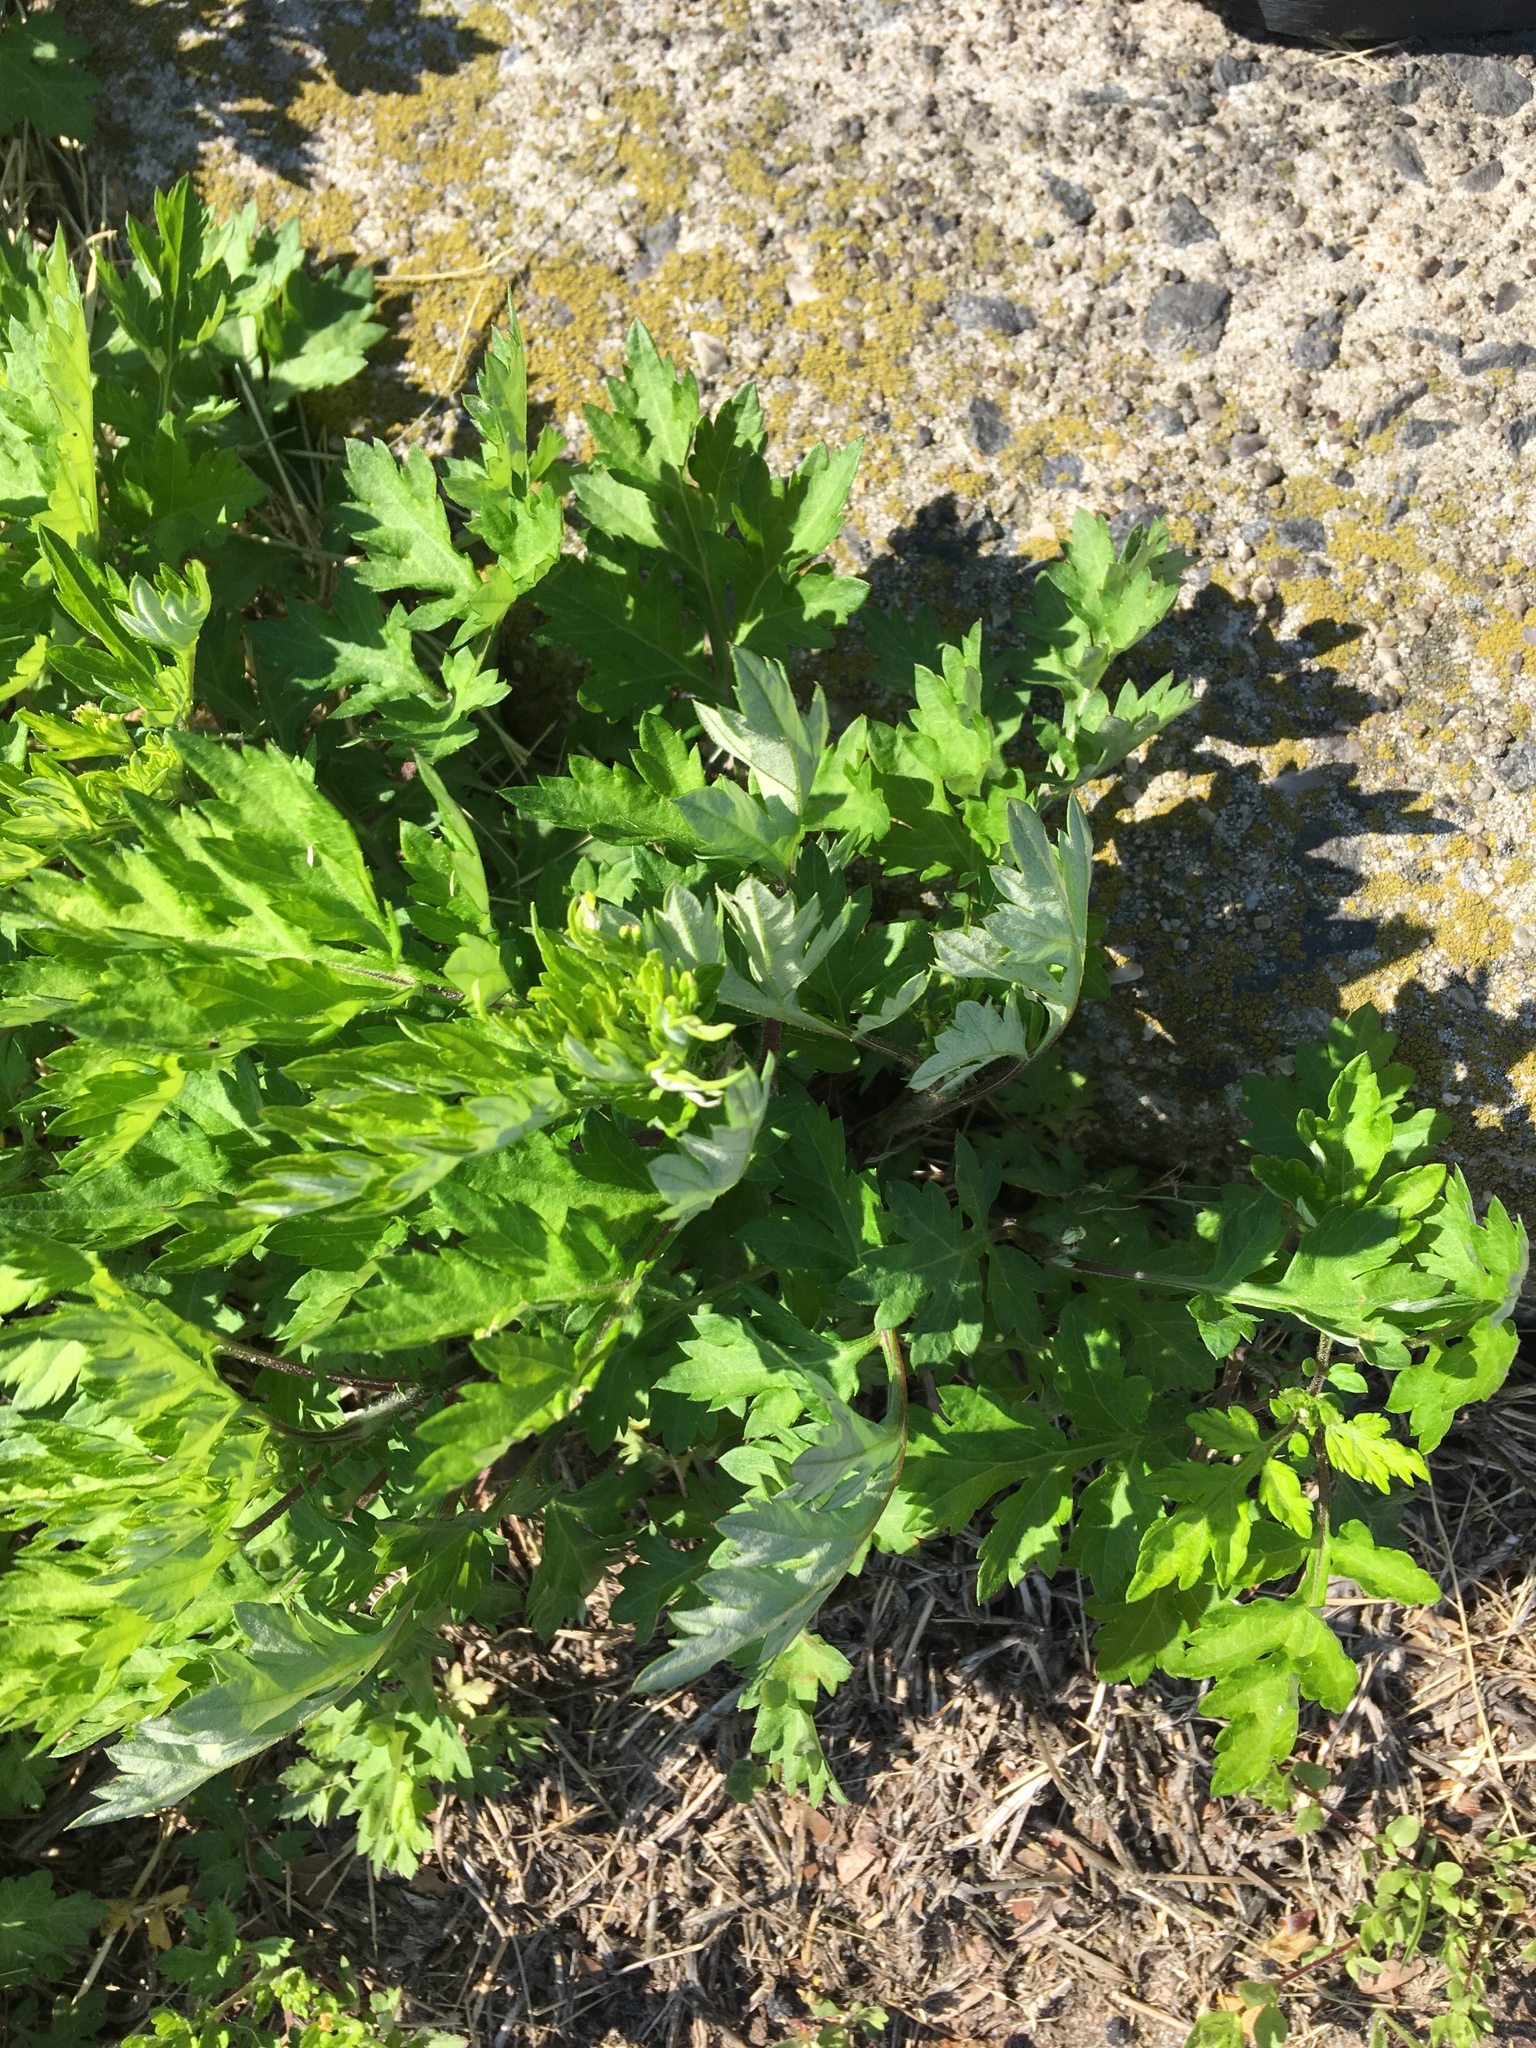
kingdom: Plantae
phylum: Tracheophyta
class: Magnoliopsida
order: Asterales
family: Asteraceae
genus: Artemisia
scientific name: Artemisia vulgaris
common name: Mugwort
